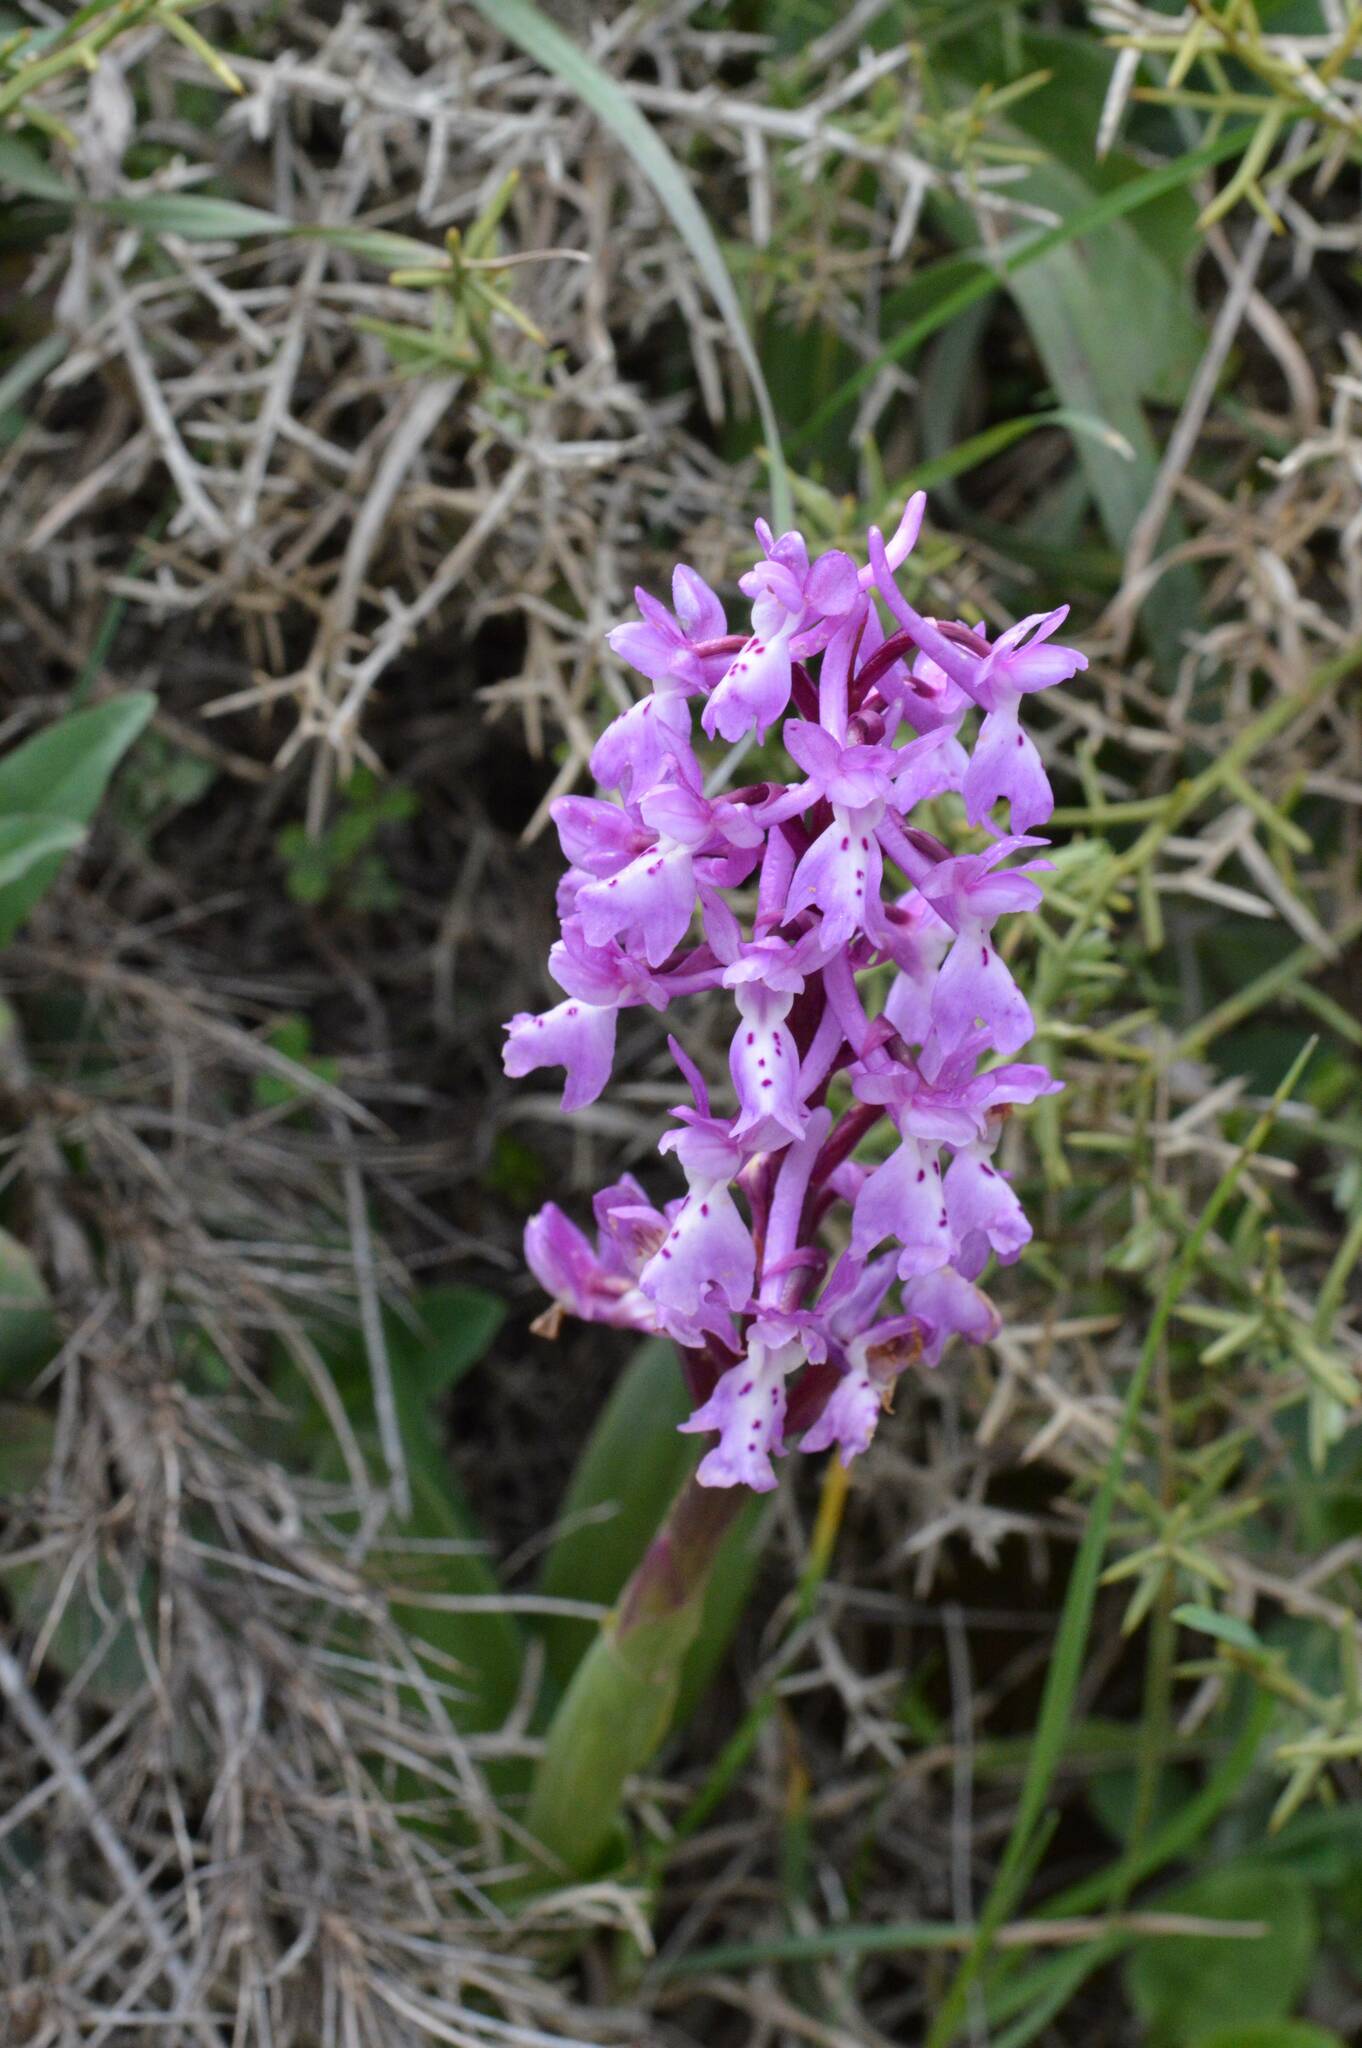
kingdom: Plantae
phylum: Tracheophyta
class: Liliopsida
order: Asparagales
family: Orchidaceae
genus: Orchis
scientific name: Orchis olbiensis
